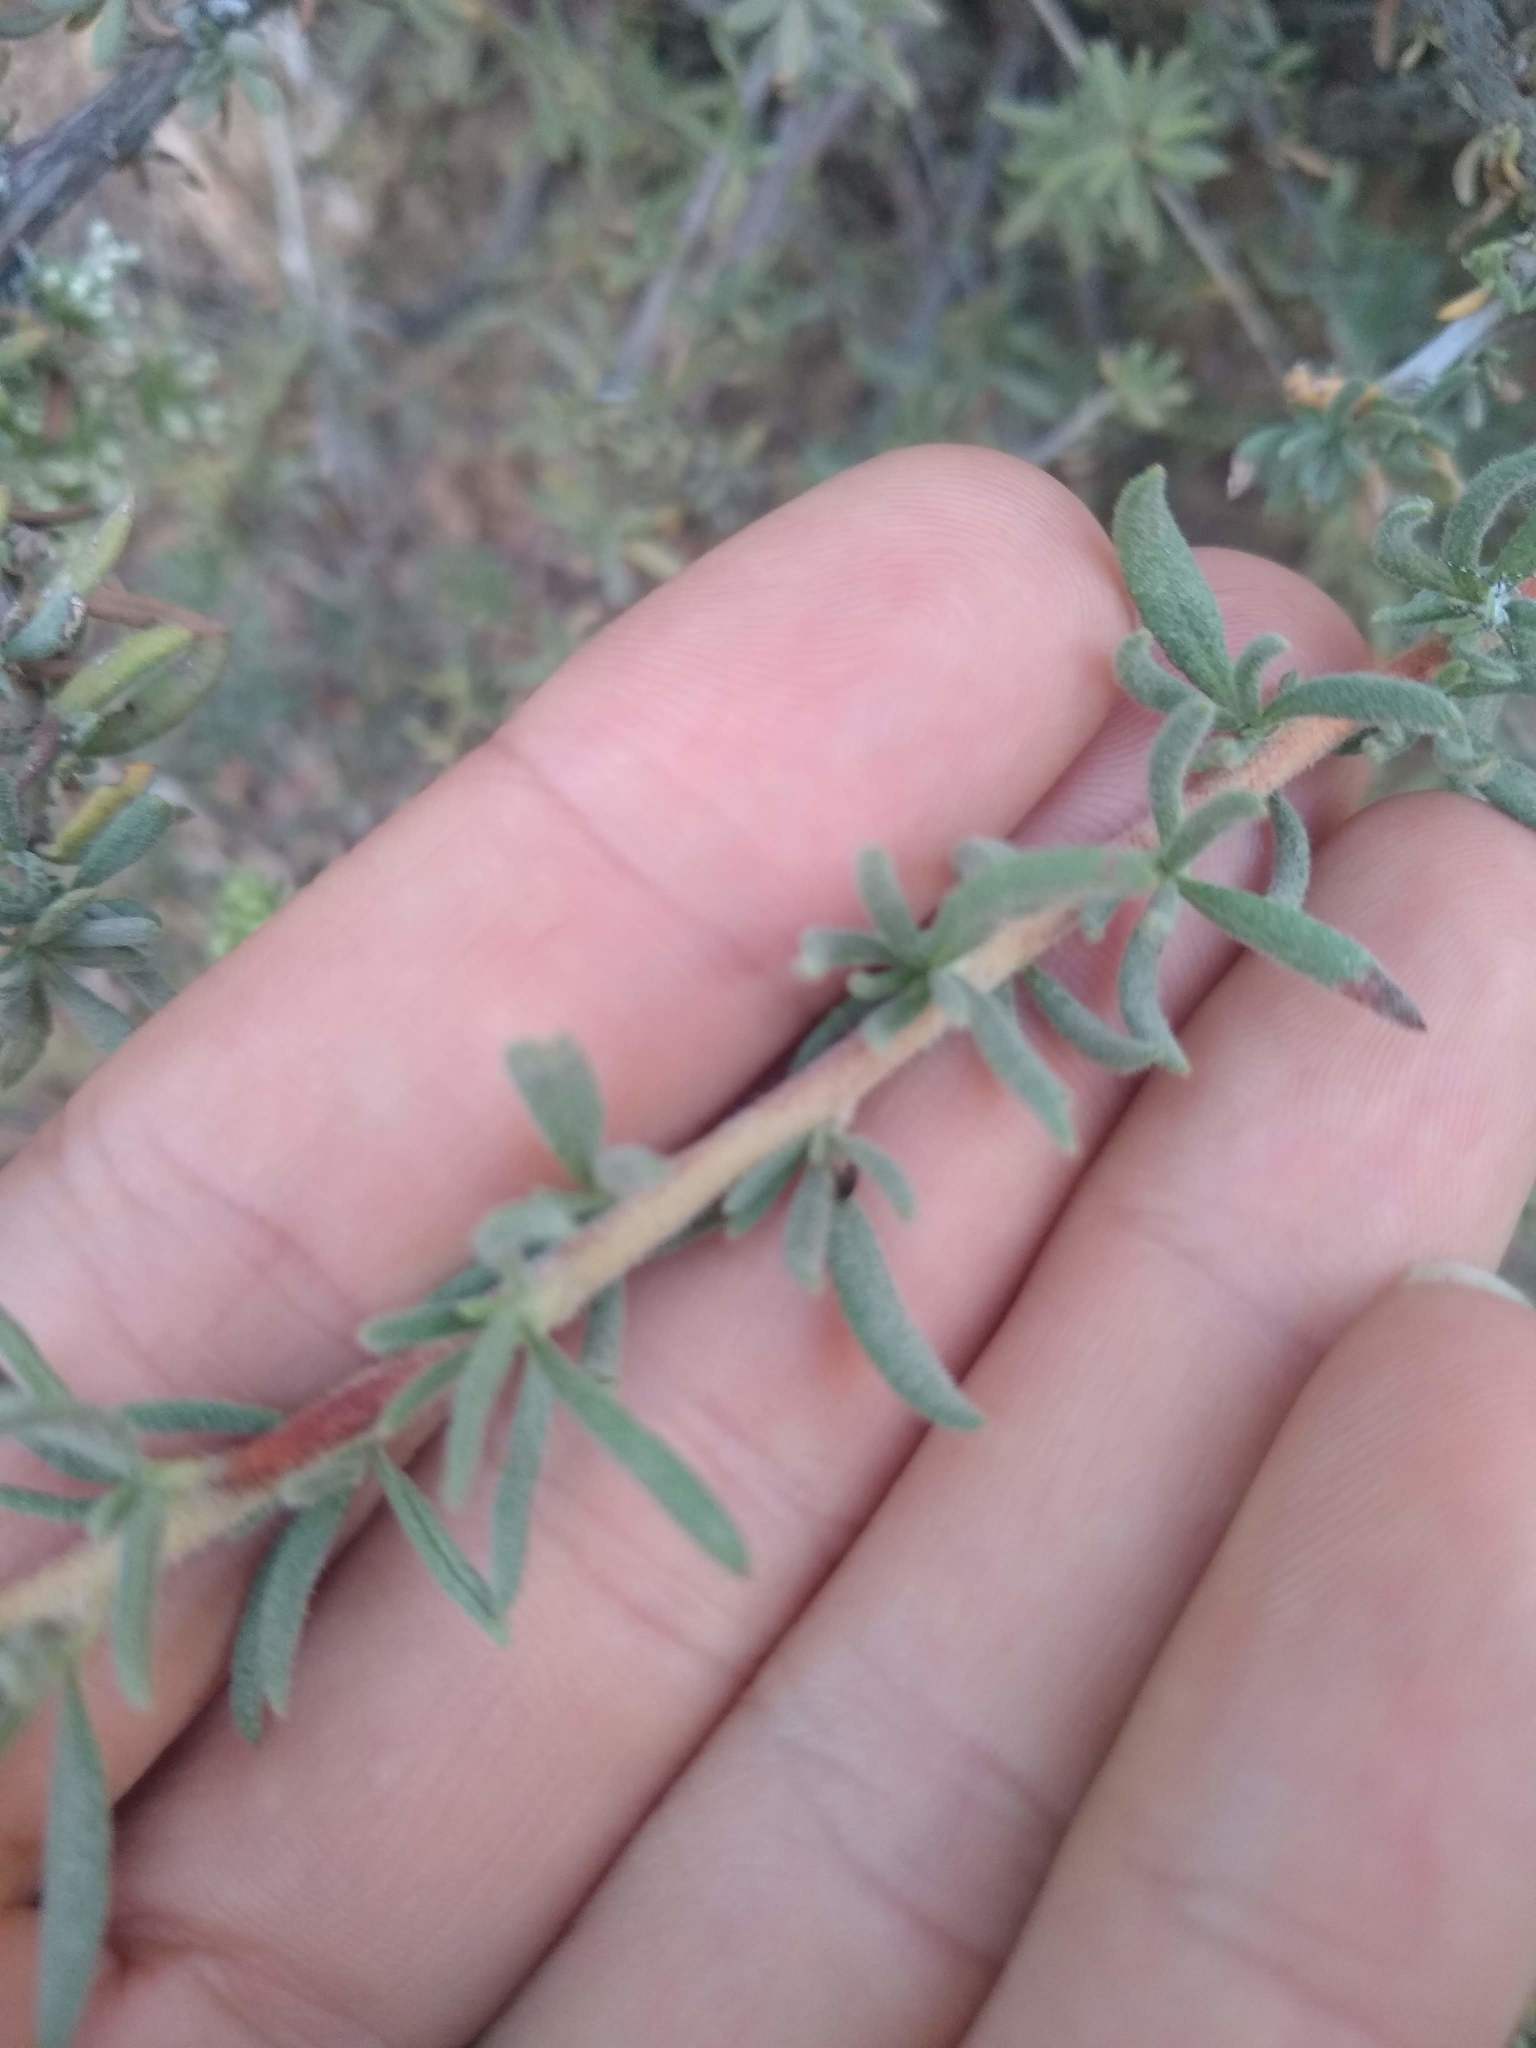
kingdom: Plantae
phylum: Tracheophyta
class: Magnoliopsida
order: Caryophyllales
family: Polygonaceae
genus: Eriogonum
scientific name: Eriogonum fasciculatum
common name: California wild buckwheat
